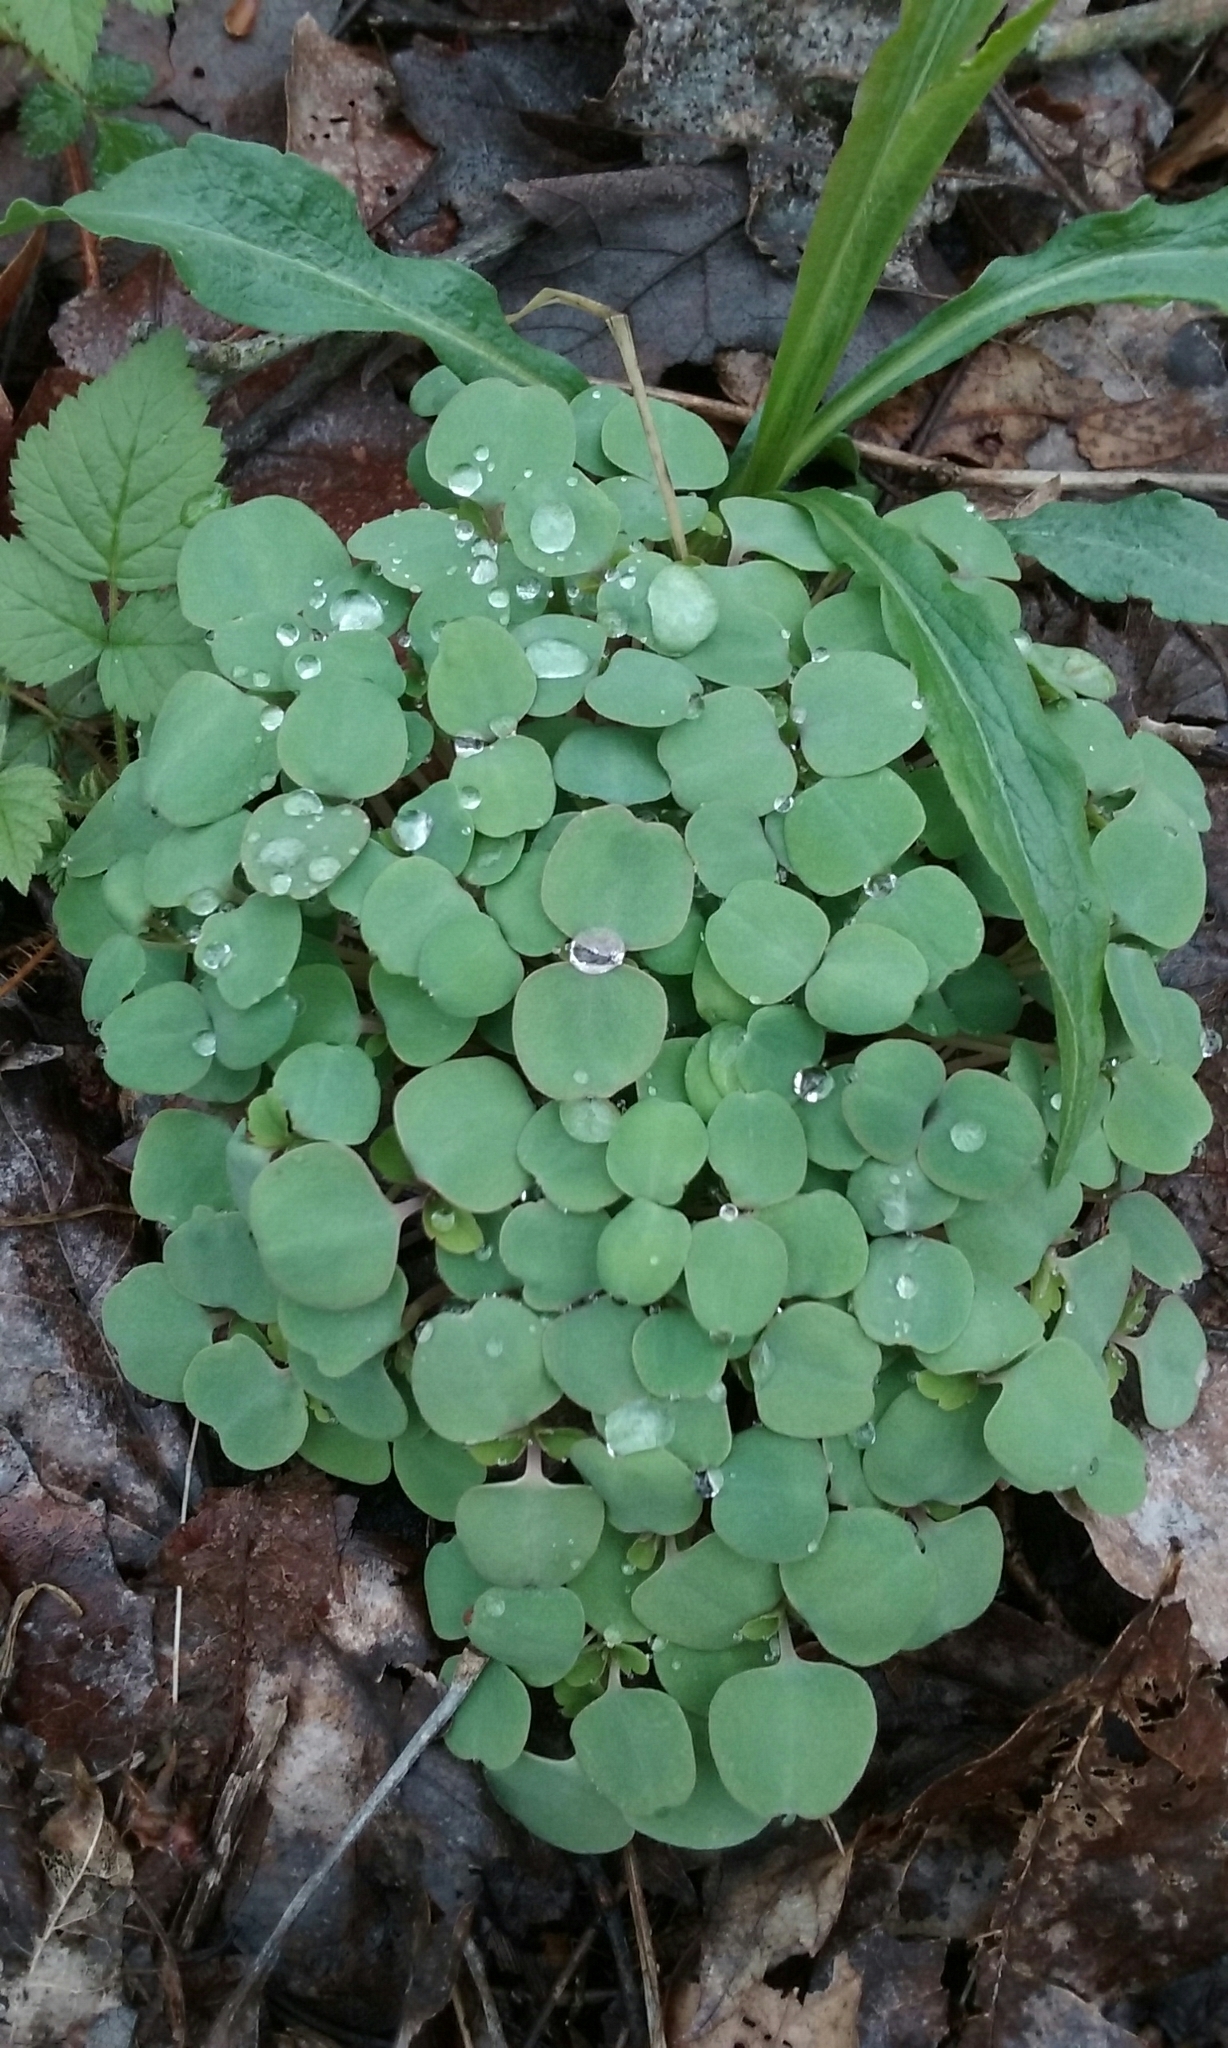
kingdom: Plantae
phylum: Tracheophyta
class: Magnoliopsida
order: Ericales
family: Balsaminaceae
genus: Impatiens
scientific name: Impatiens
